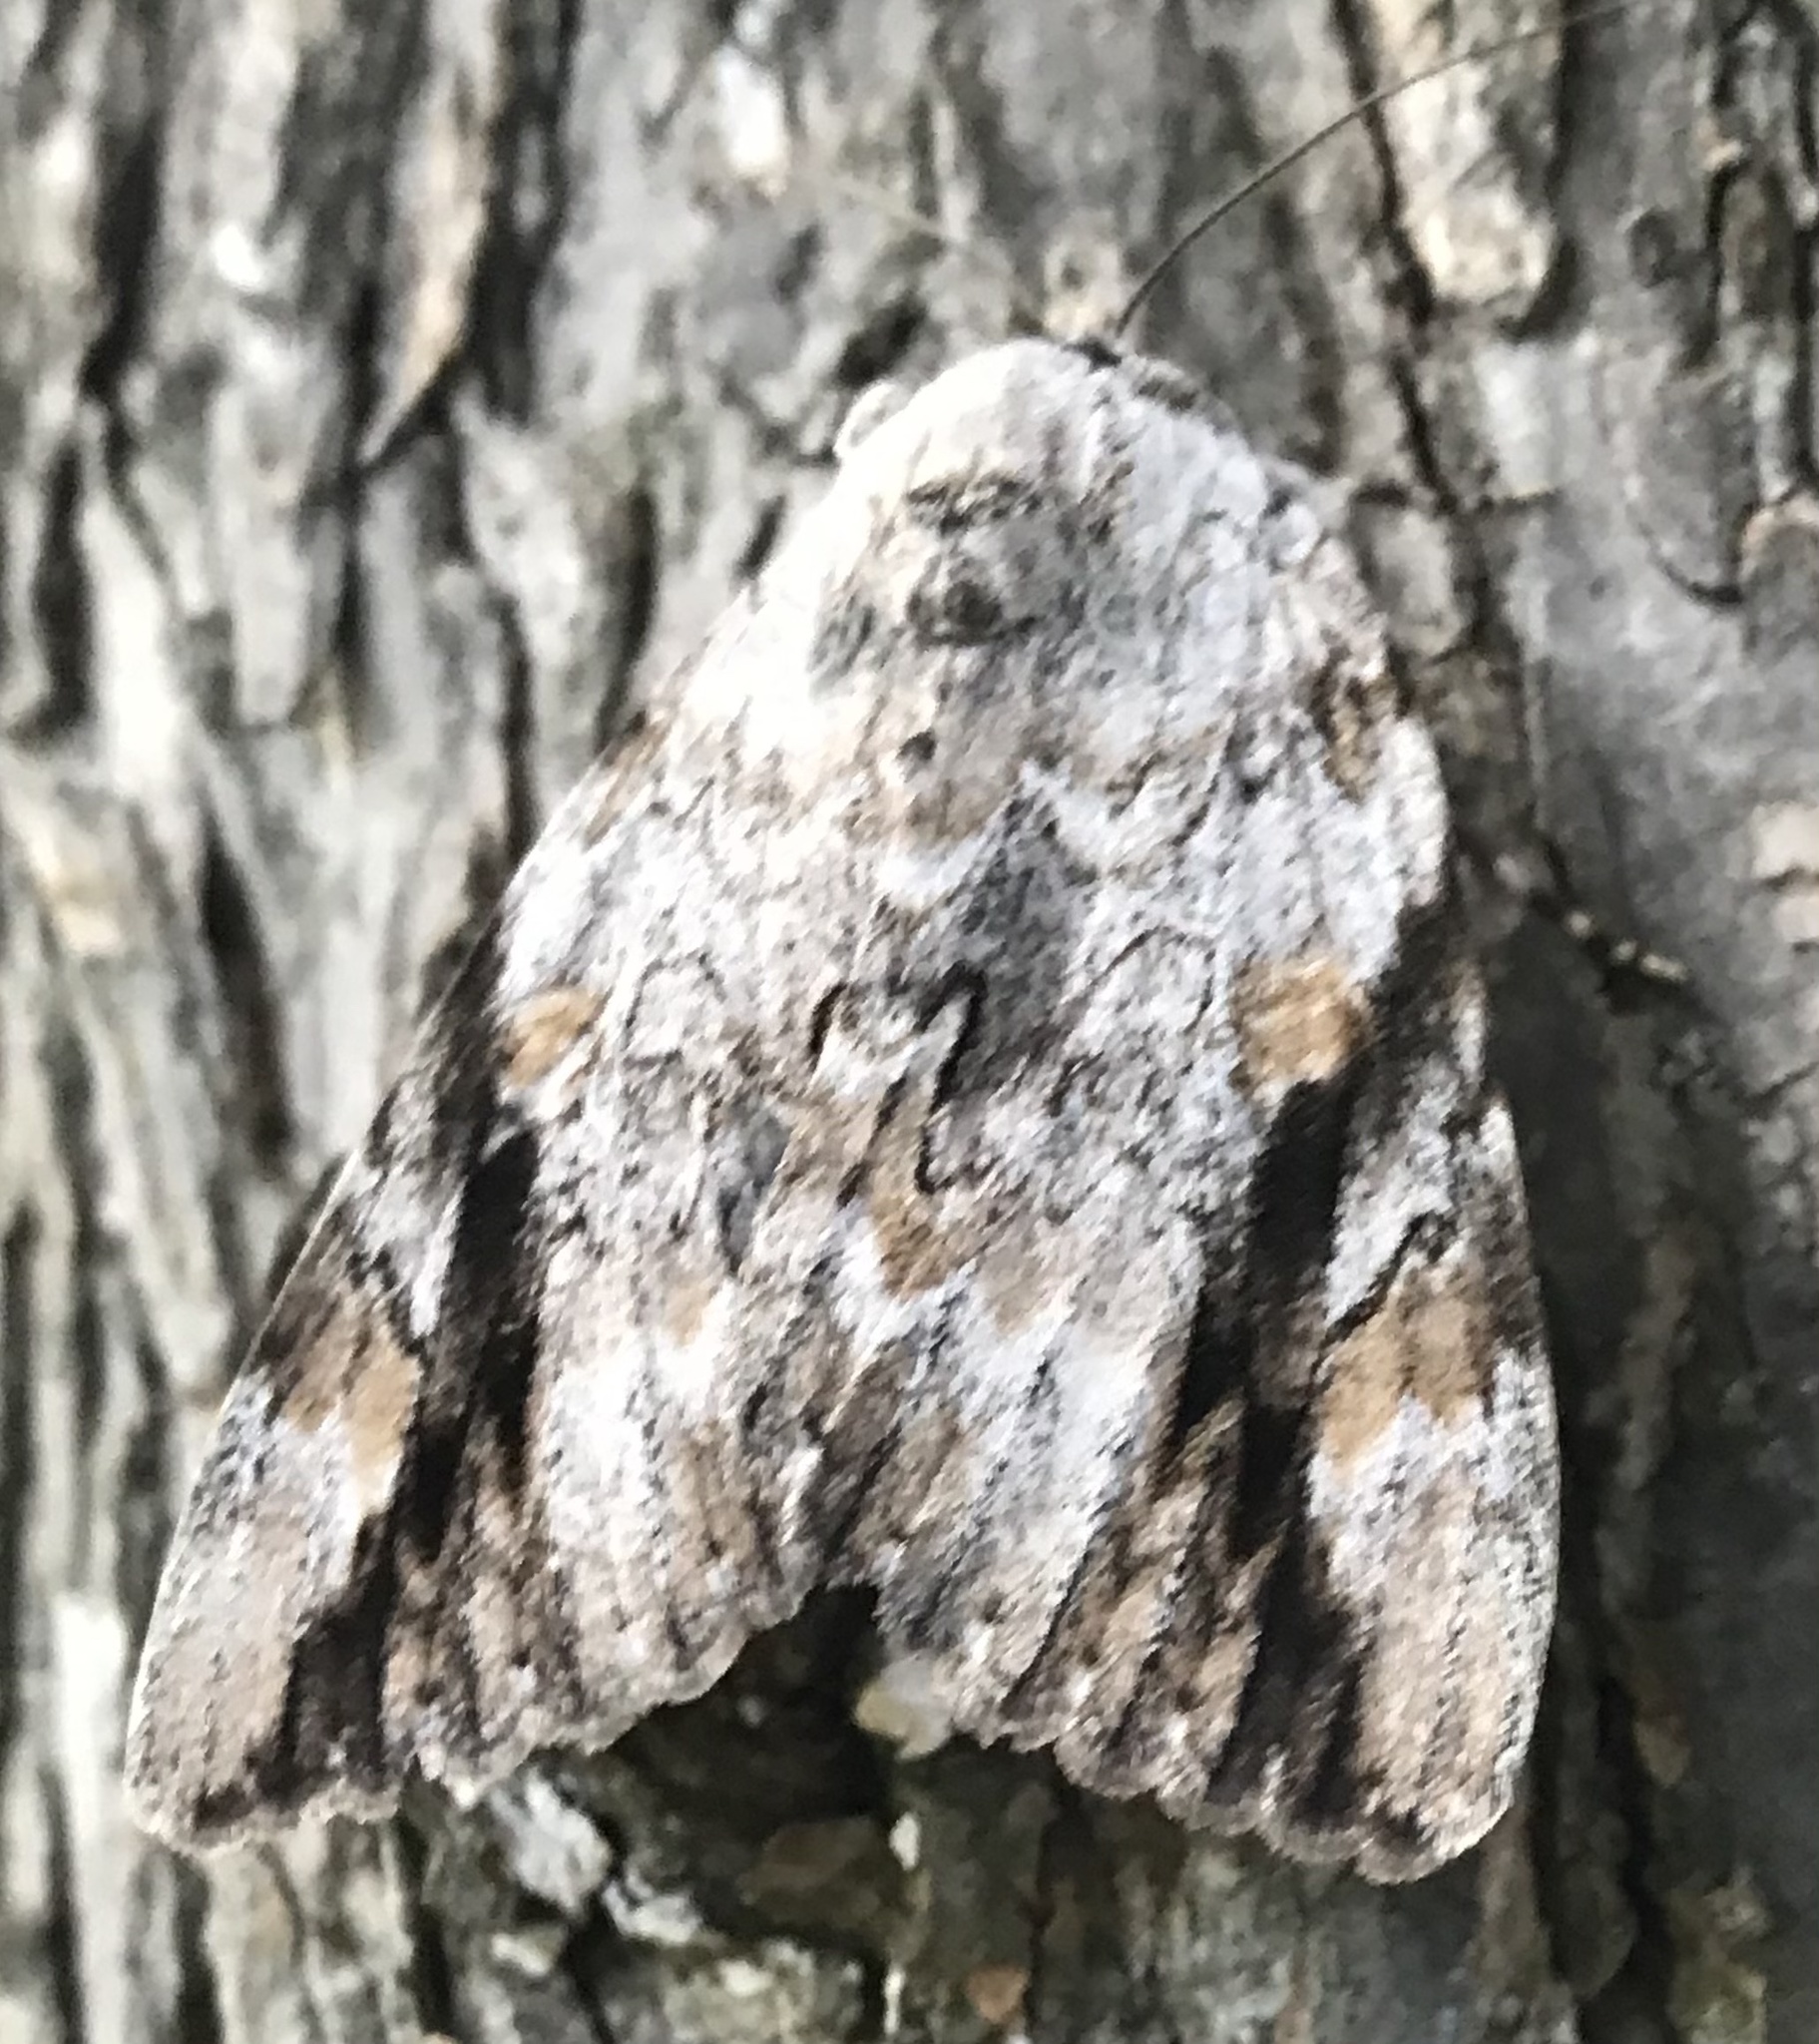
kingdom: Animalia
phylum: Arthropoda
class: Insecta
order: Lepidoptera
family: Erebidae
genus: Catocala
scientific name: Catocala maestosa
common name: Sad underwing
